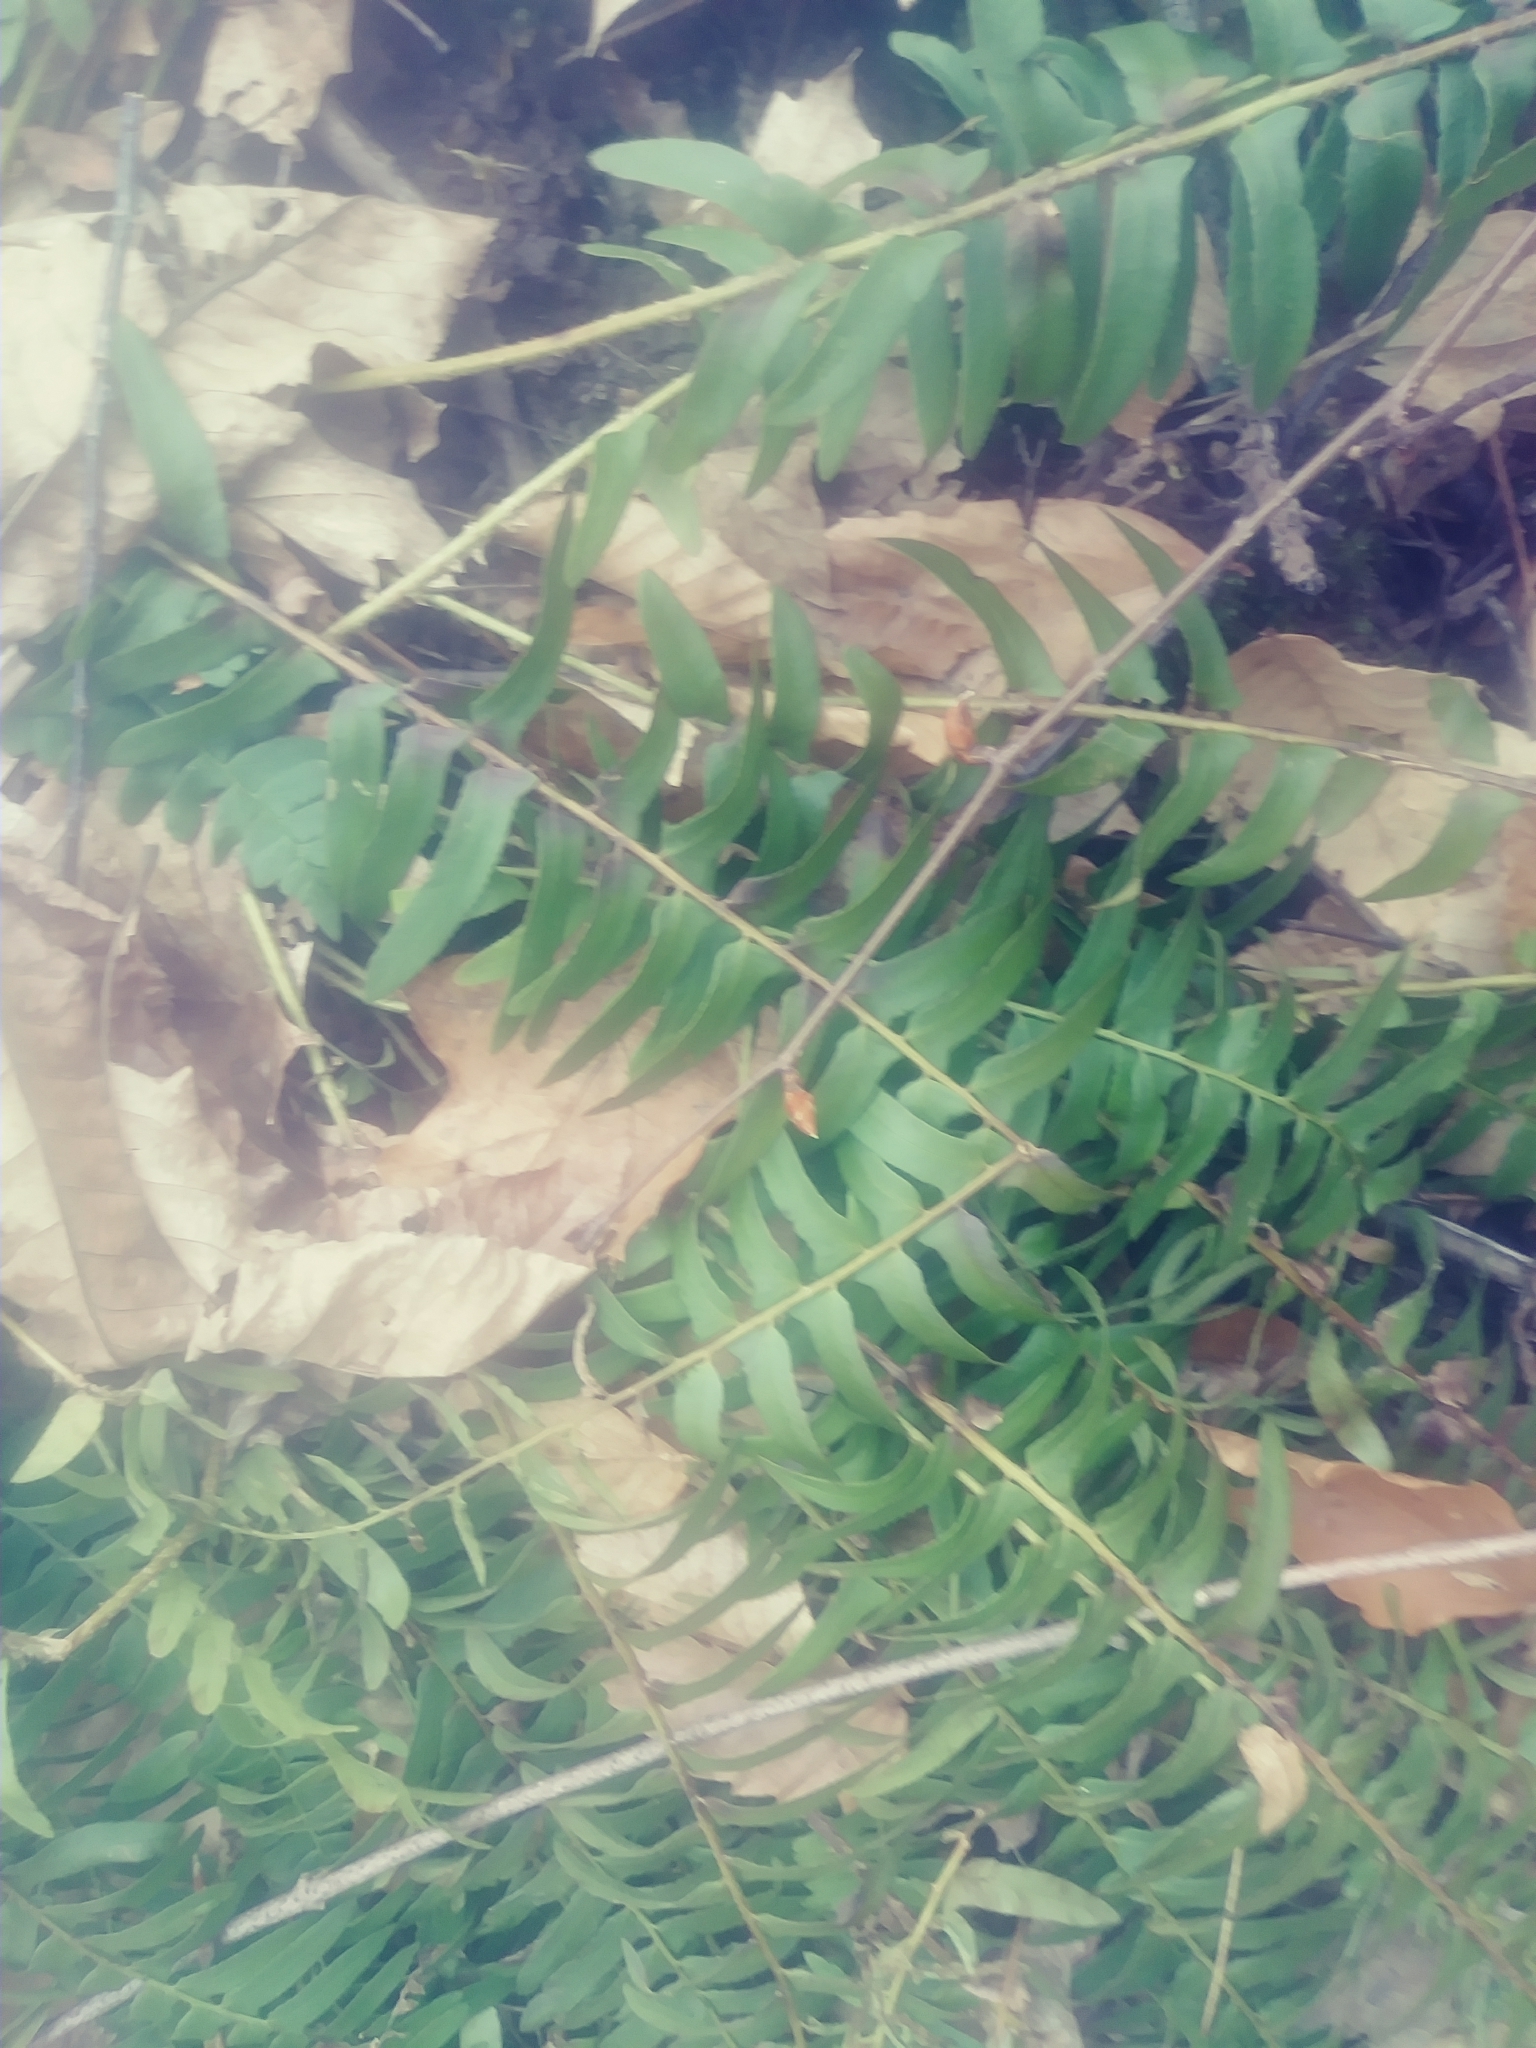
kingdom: Plantae
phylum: Tracheophyta
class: Polypodiopsida
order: Polypodiales
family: Dryopteridaceae
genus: Polystichum
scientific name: Polystichum acrostichoides
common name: Christmas fern
